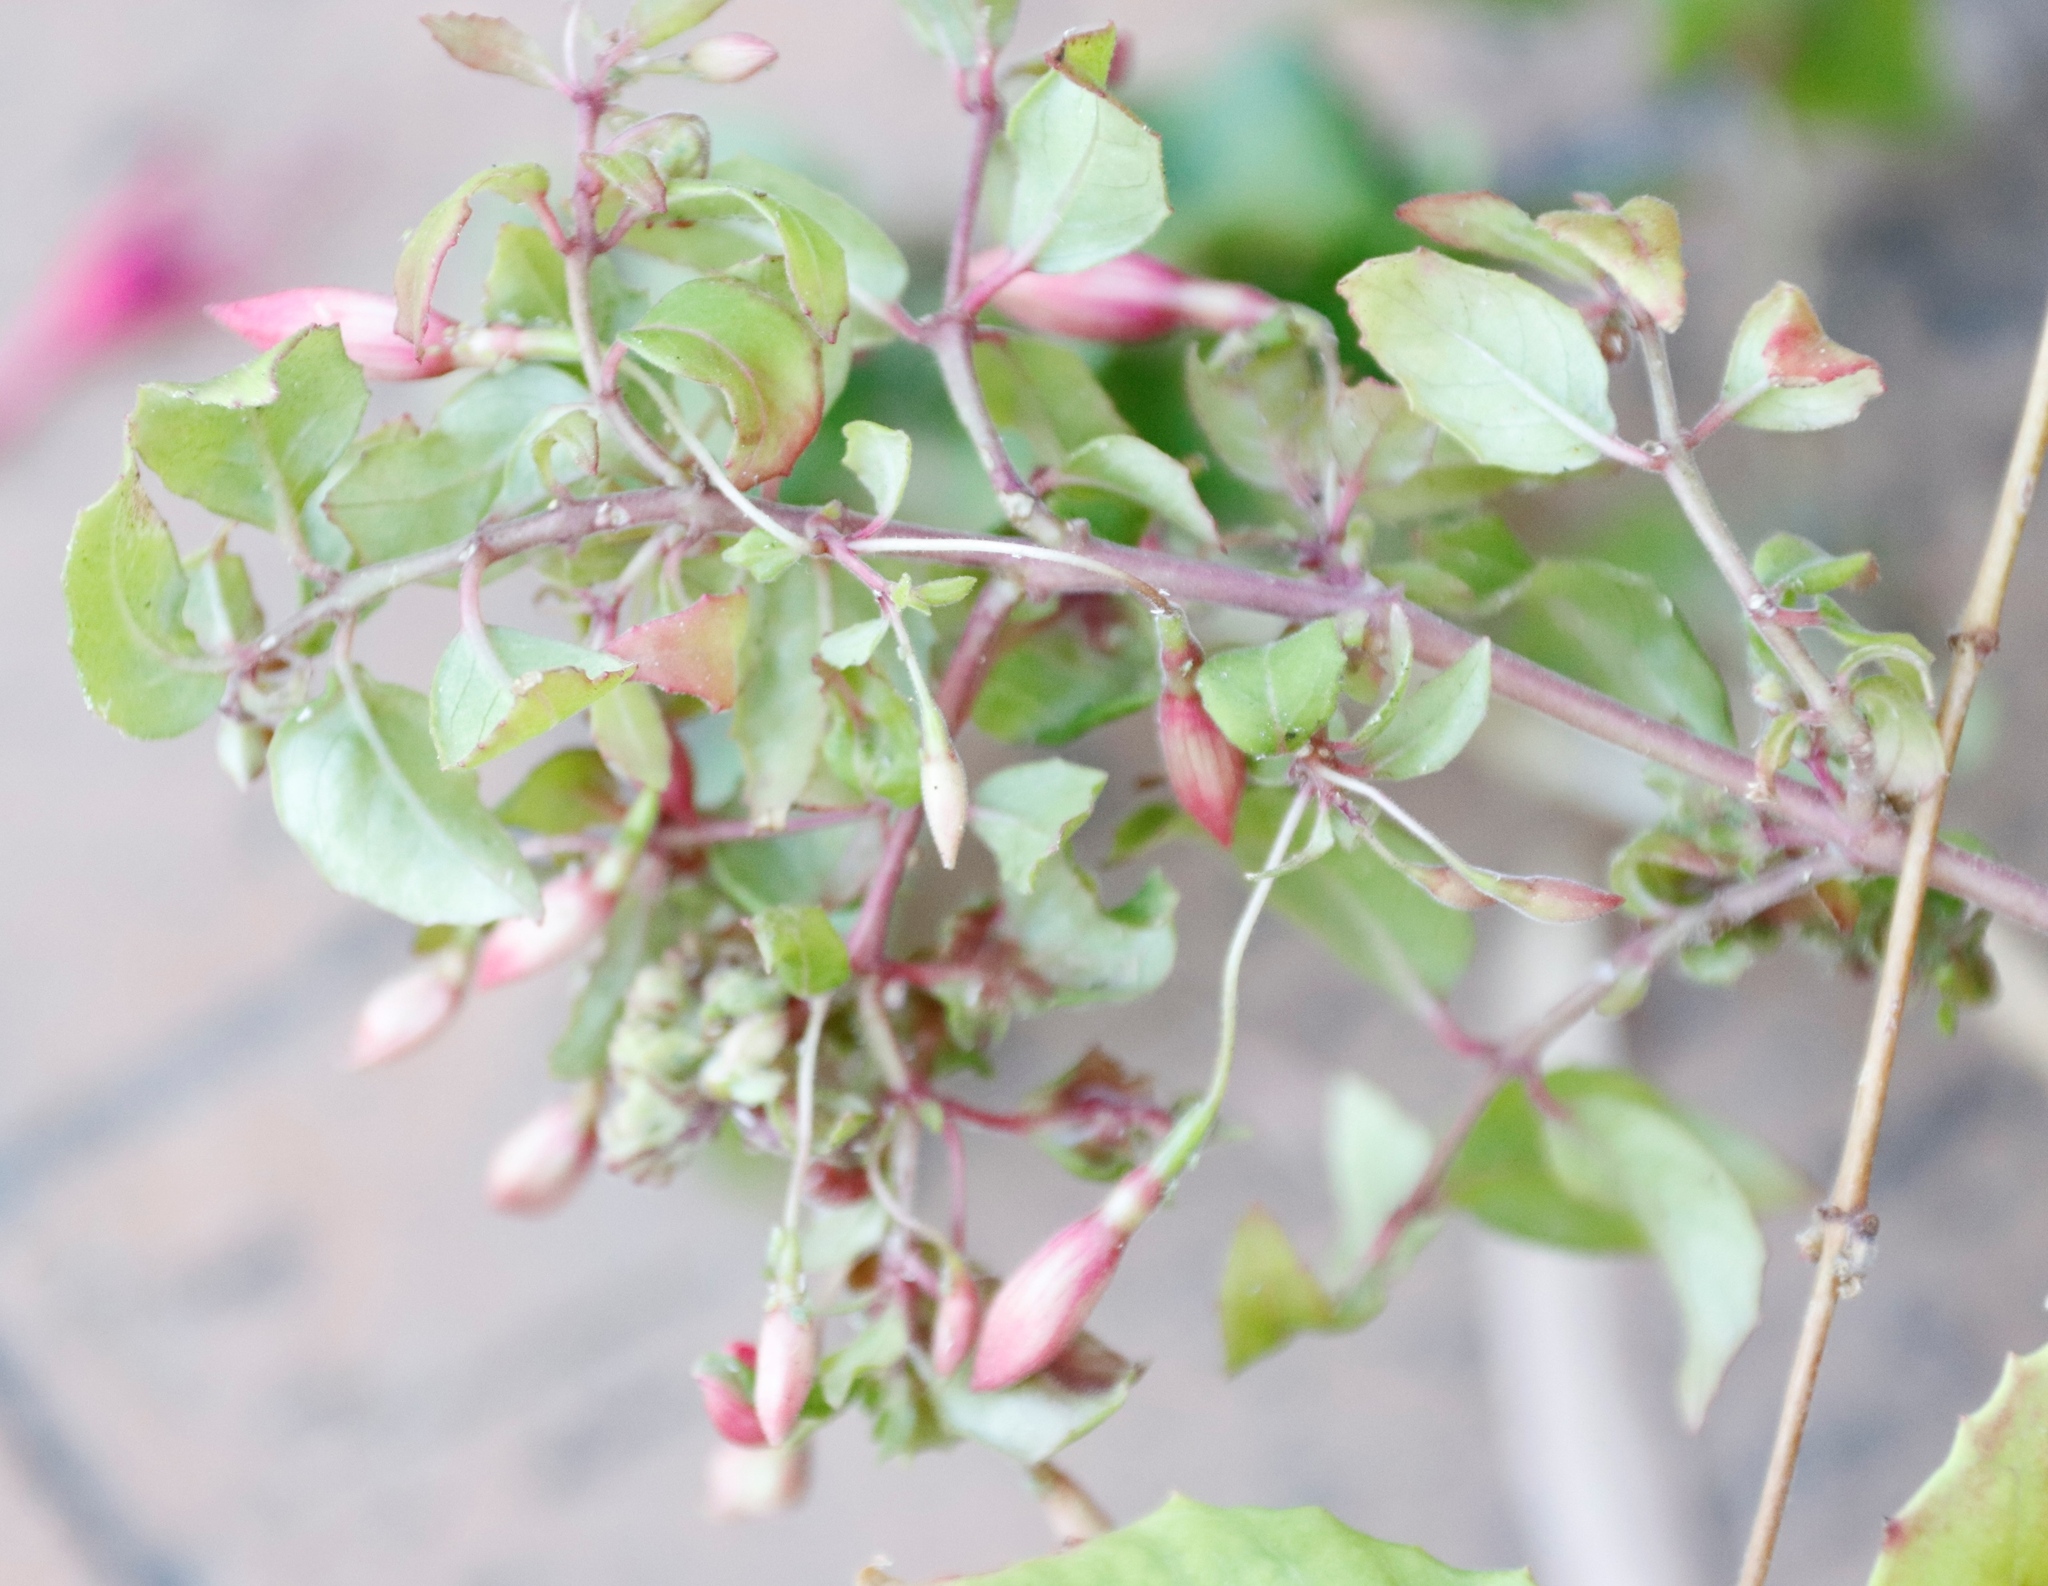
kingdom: Animalia
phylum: Arthropoda
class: Arachnida
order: Trombidiformes
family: Eriophyidae
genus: Aculops
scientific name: Aculops fuchsiae
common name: Fuchsia gall mite
